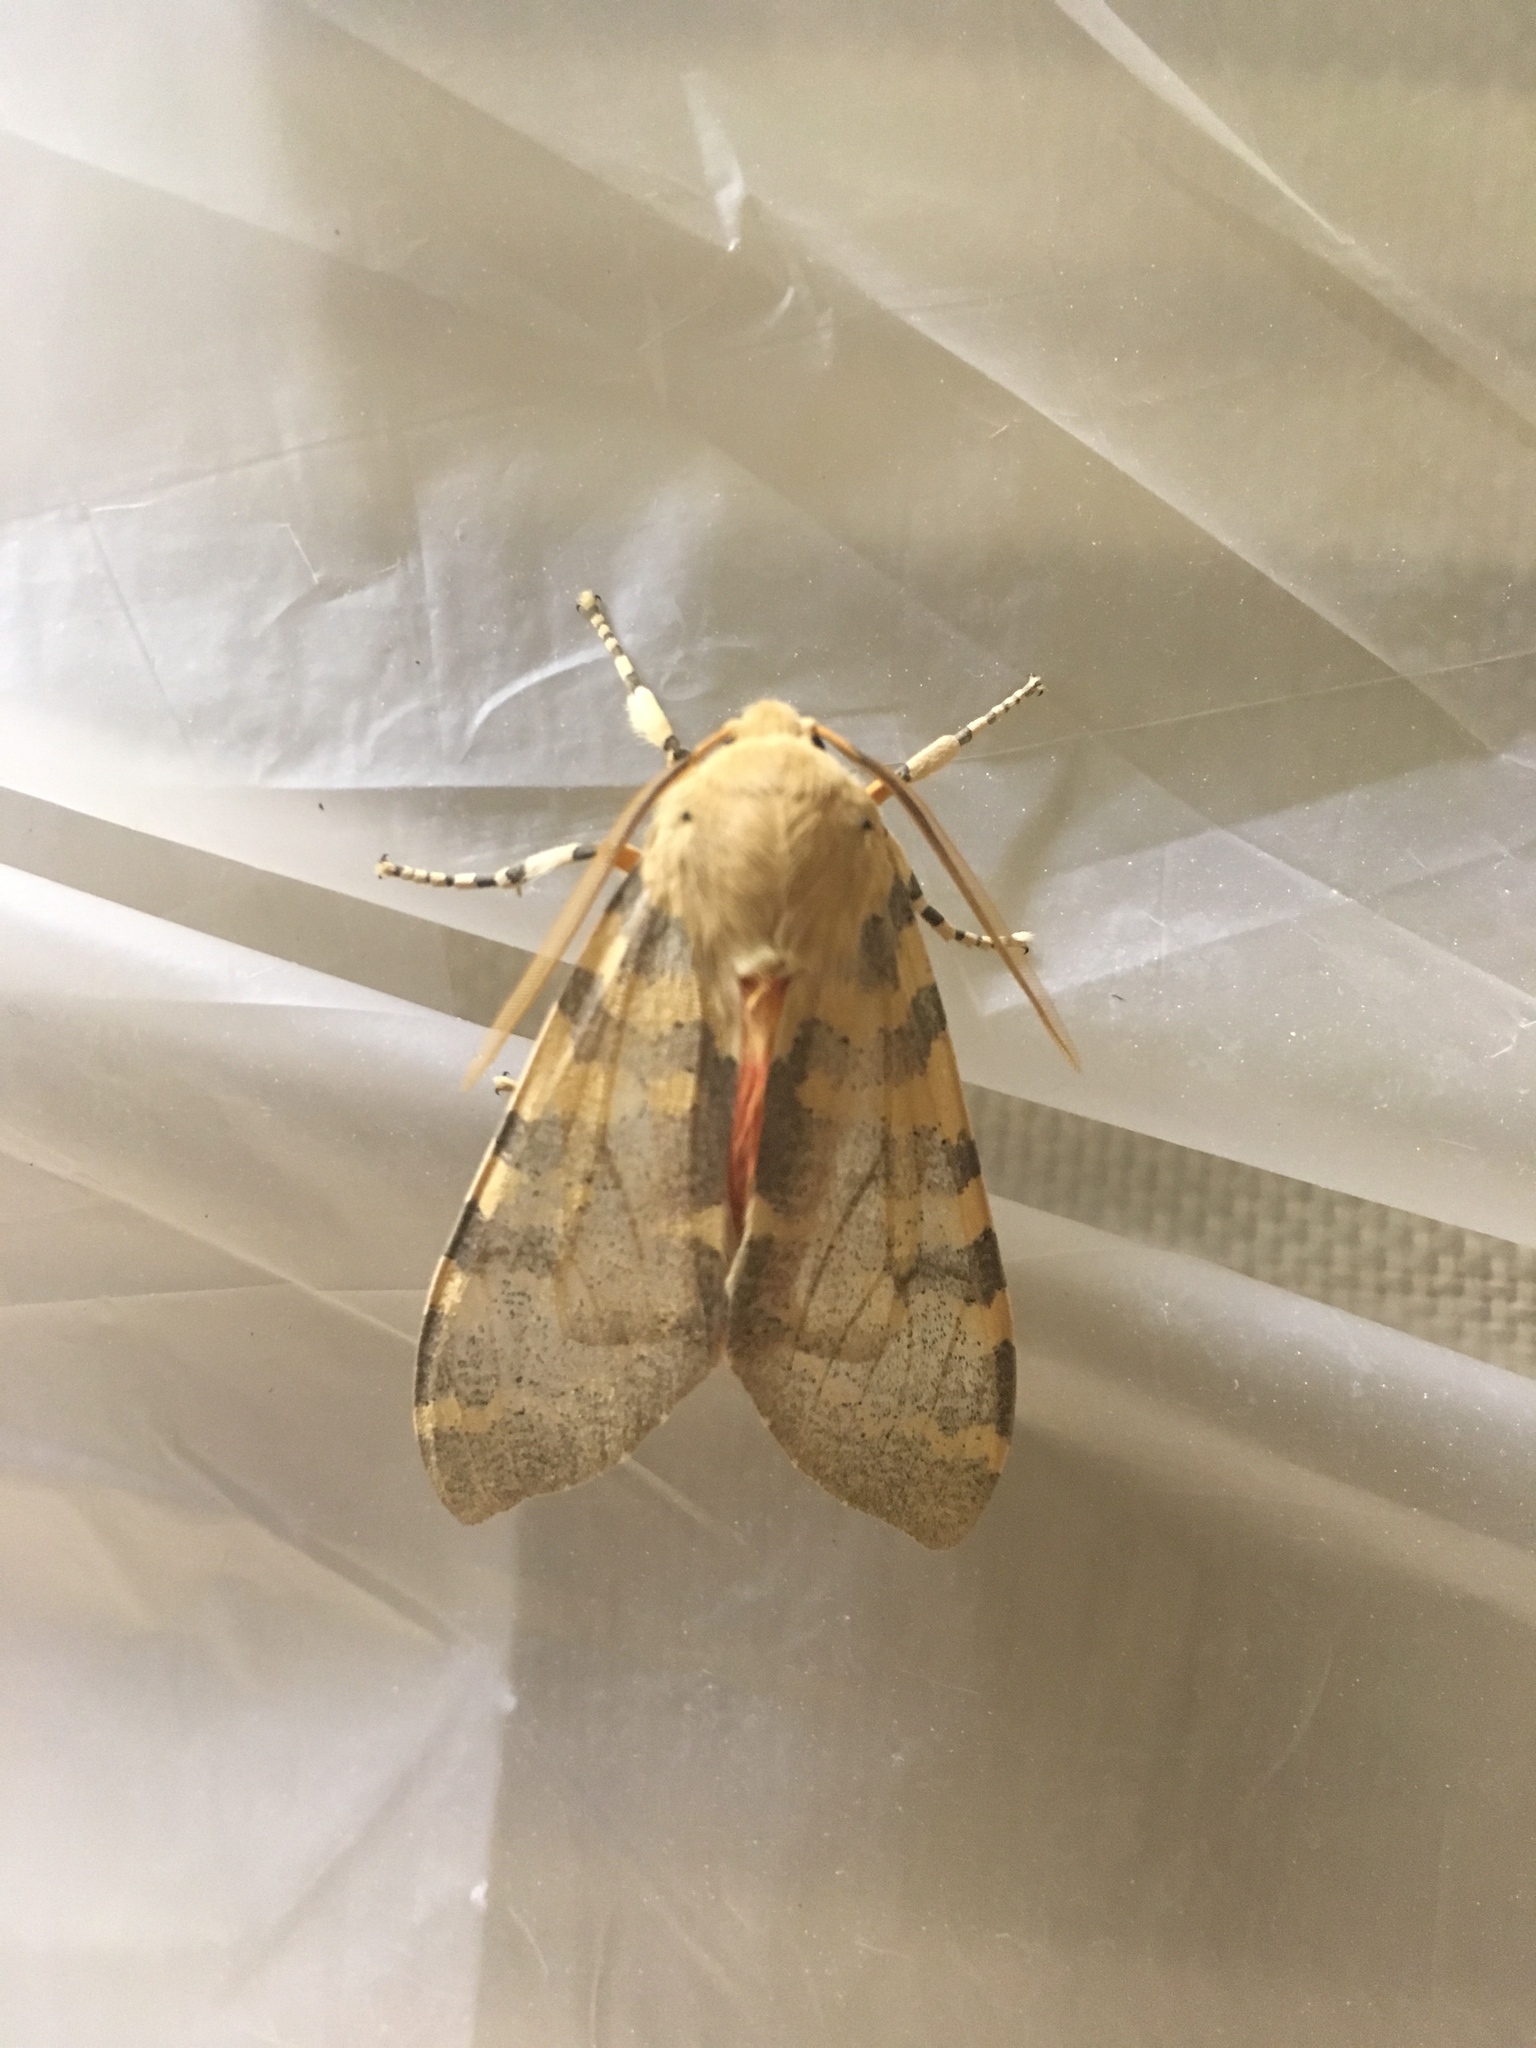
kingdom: Animalia
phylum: Arthropoda
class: Insecta
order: Lepidoptera
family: Erebidae
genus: Hemihyalea
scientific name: Hemihyalea edwardsii
